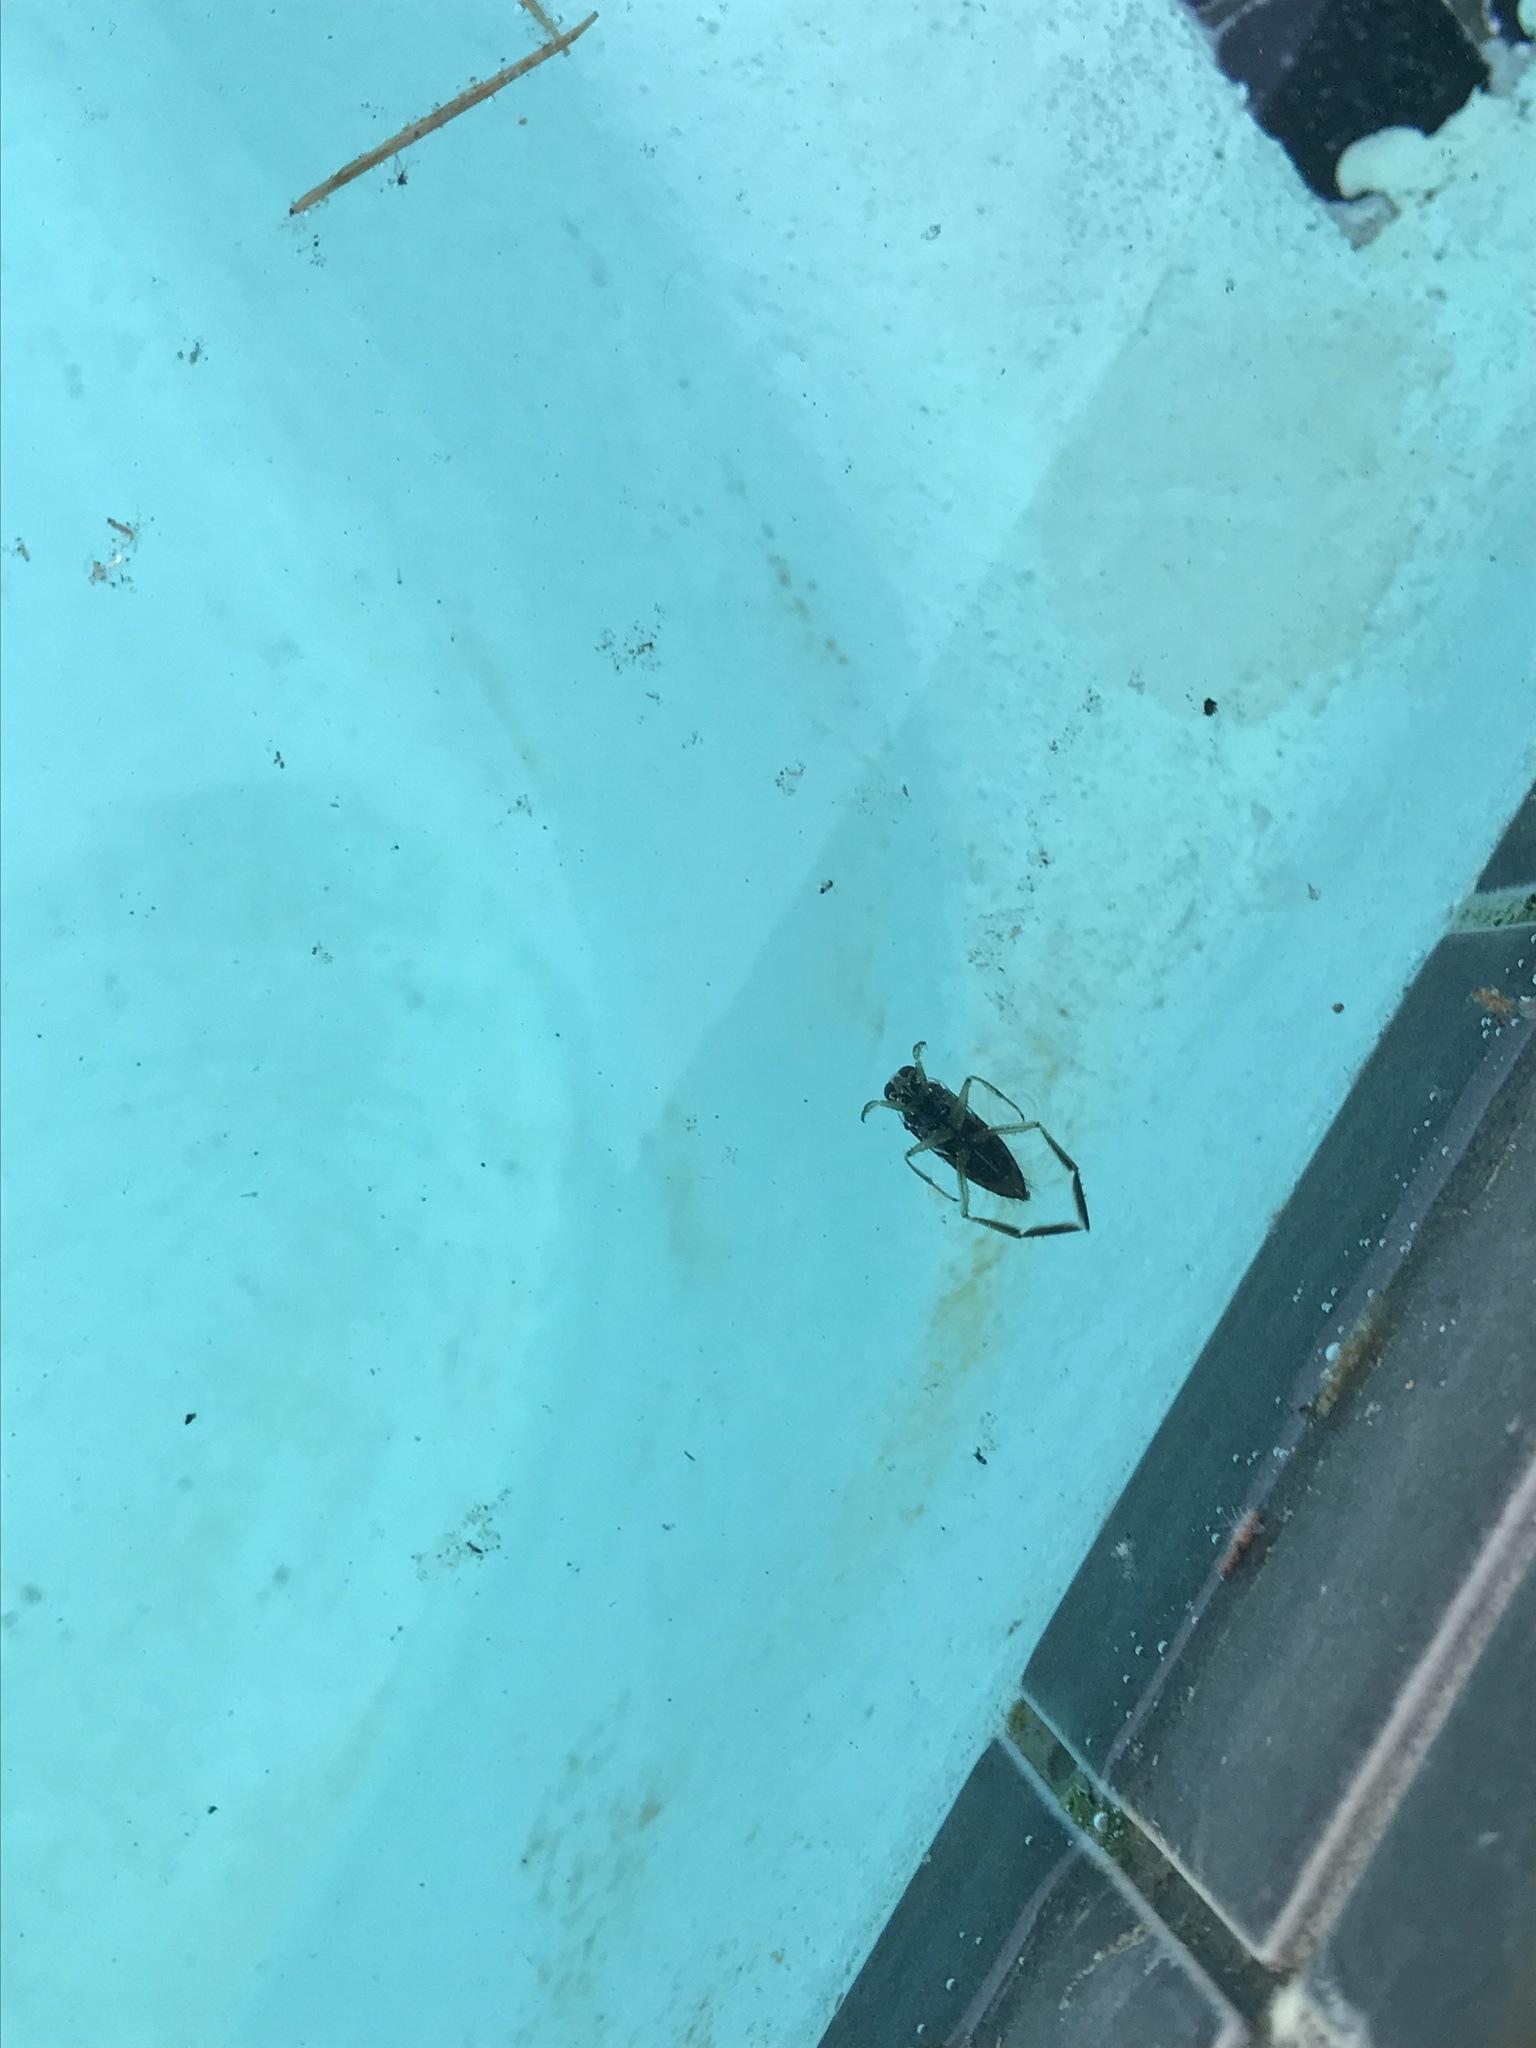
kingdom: Animalia
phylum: Arthropoda
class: Insecta
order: Hemiptera
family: Notonectidae
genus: Notonecta
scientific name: Notonecta
